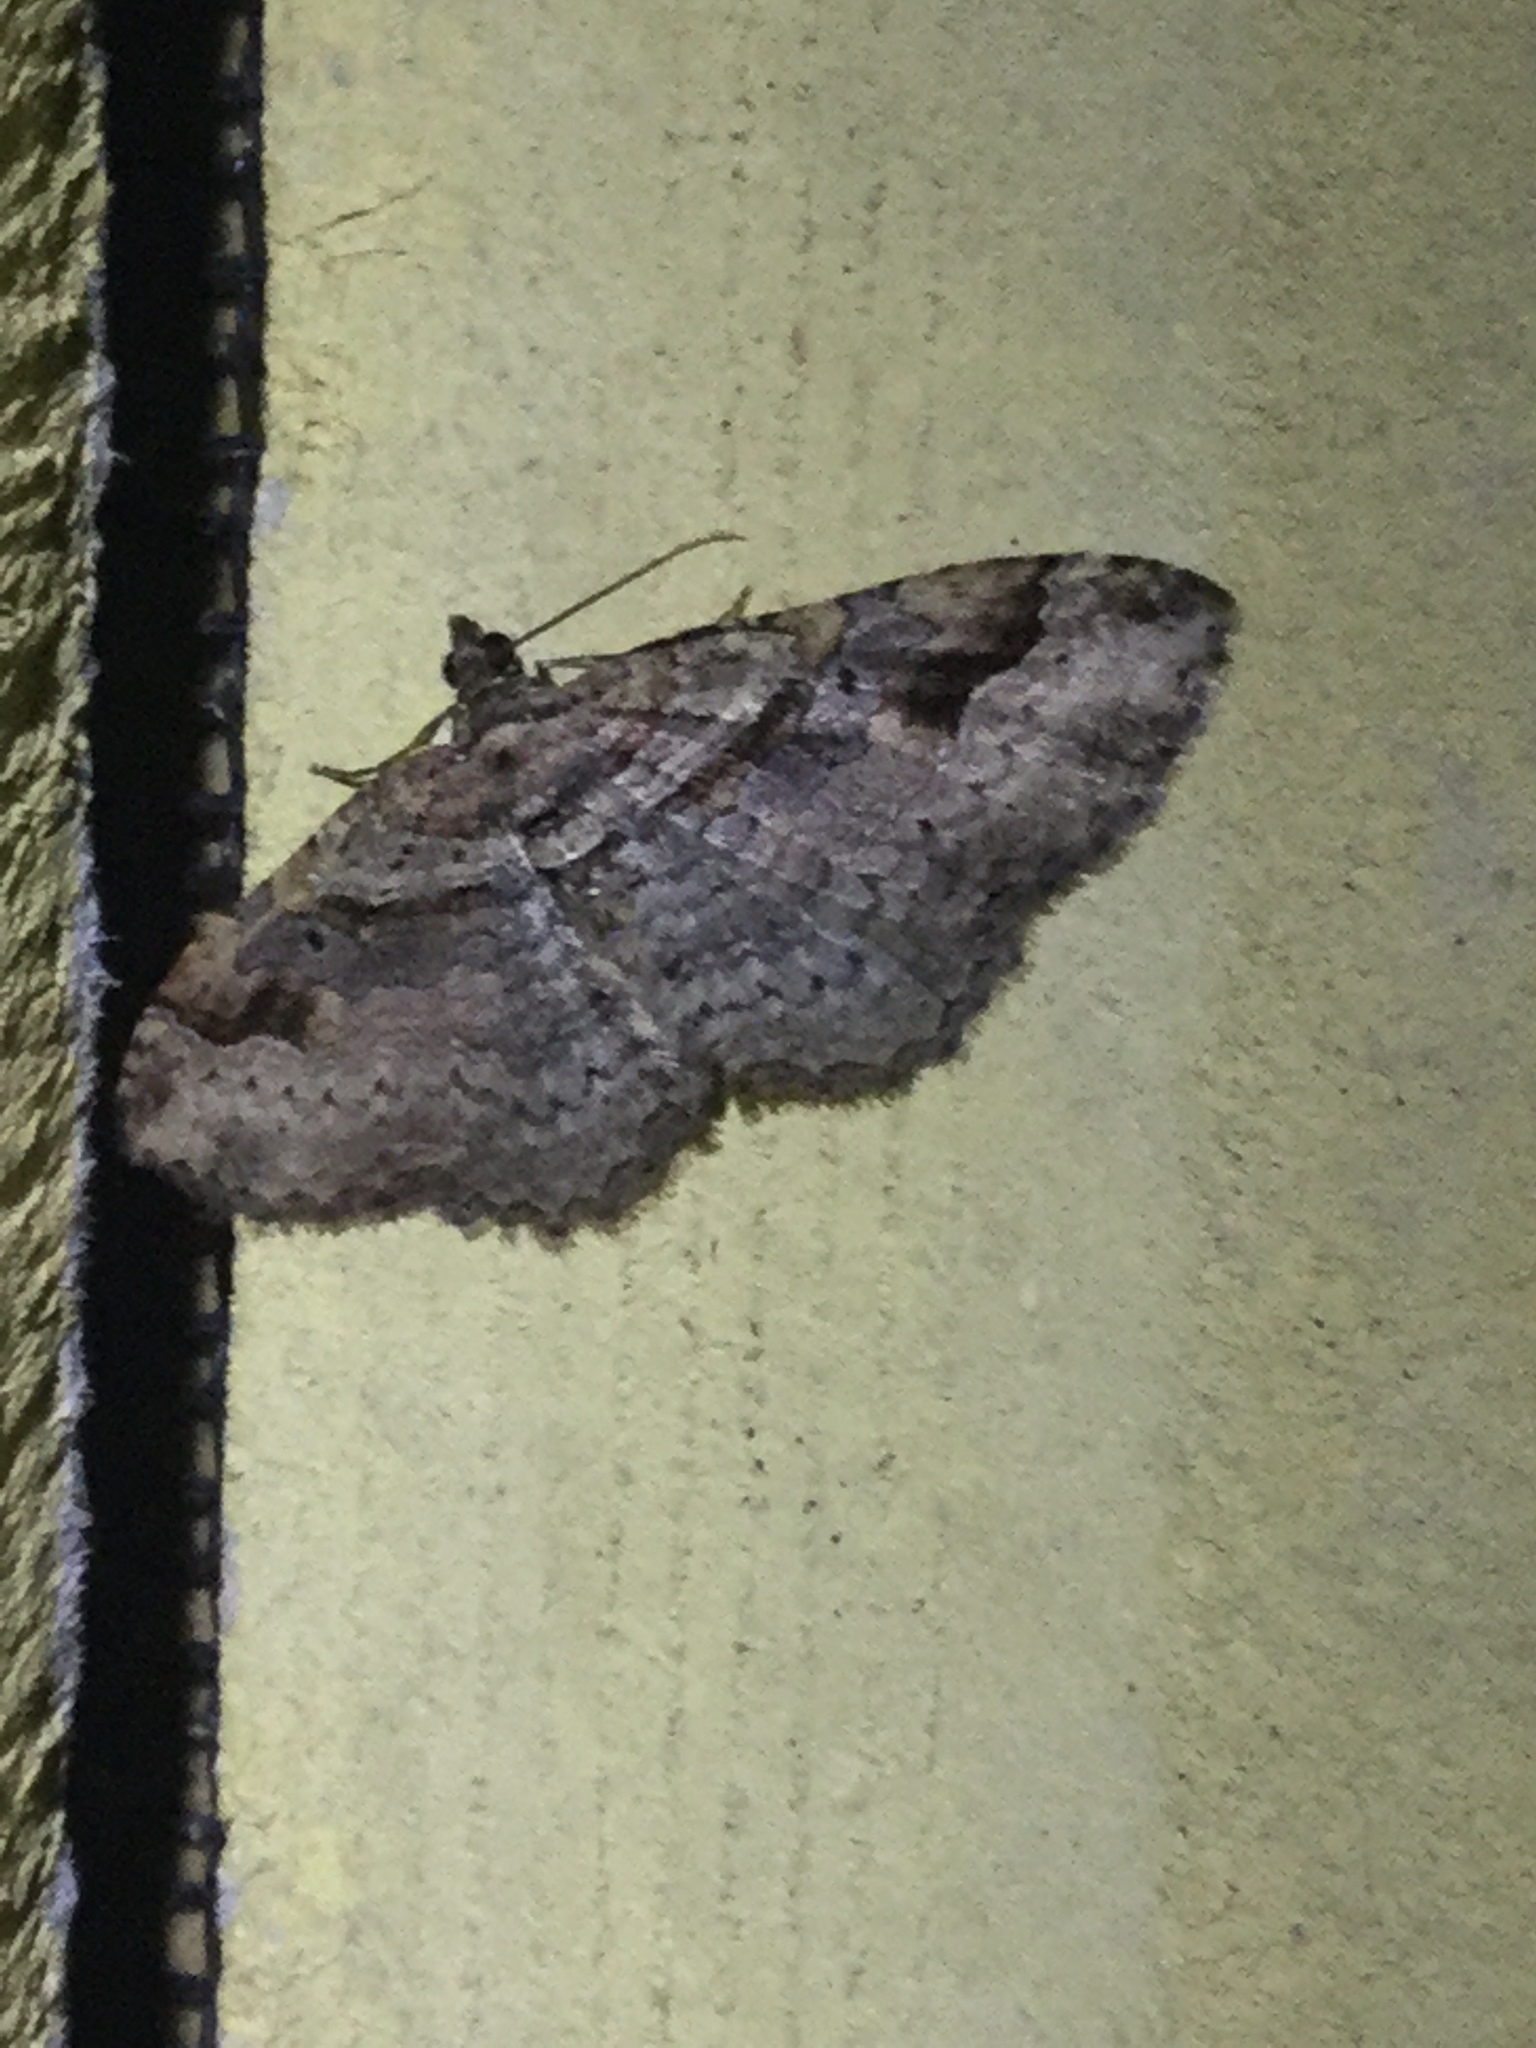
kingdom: Animalia
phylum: Arthropoda
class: Insecta
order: Lepidoptera
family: Geometridae
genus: Costaconvexa
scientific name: Costaconvexa centrostrigaria
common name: Bent-line carpet
